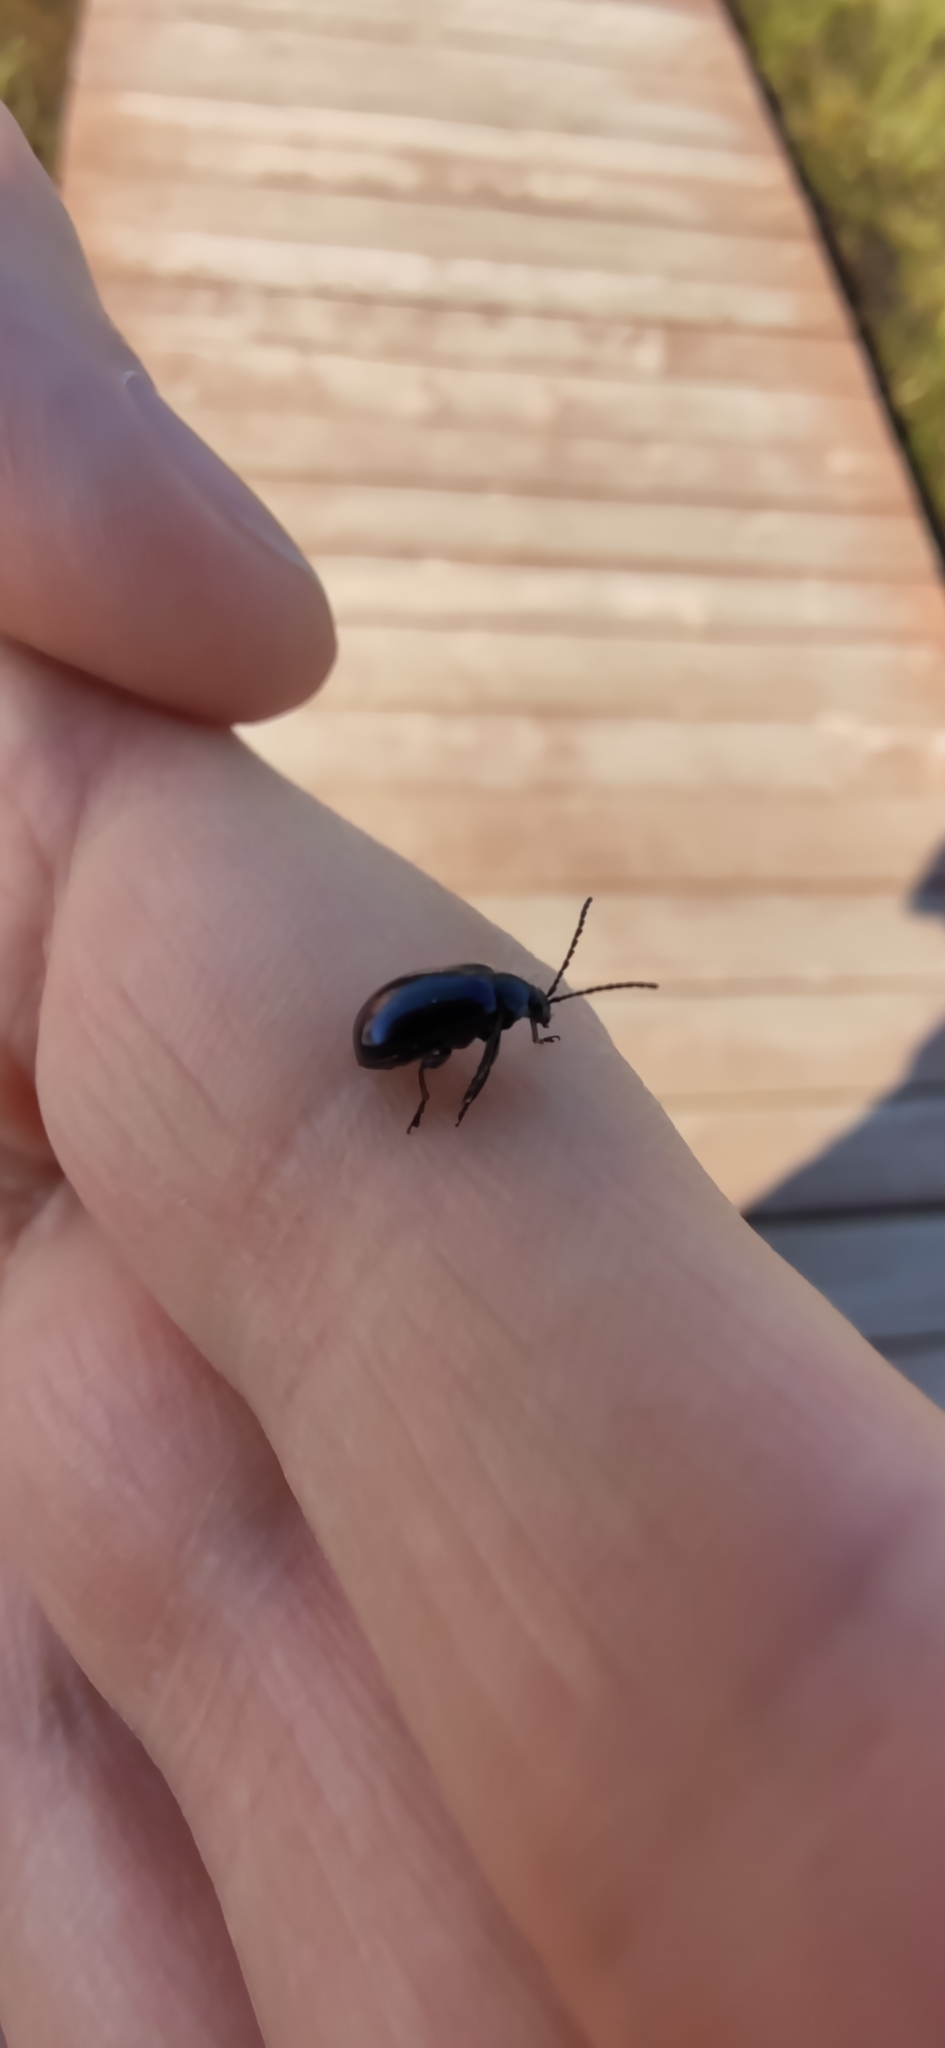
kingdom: Animalia
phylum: Arthropoda
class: Insecta
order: Coleoptera
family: Chrysomelidae
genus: Agelastica
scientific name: Agelastica alni
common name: Alder leaf beetle
